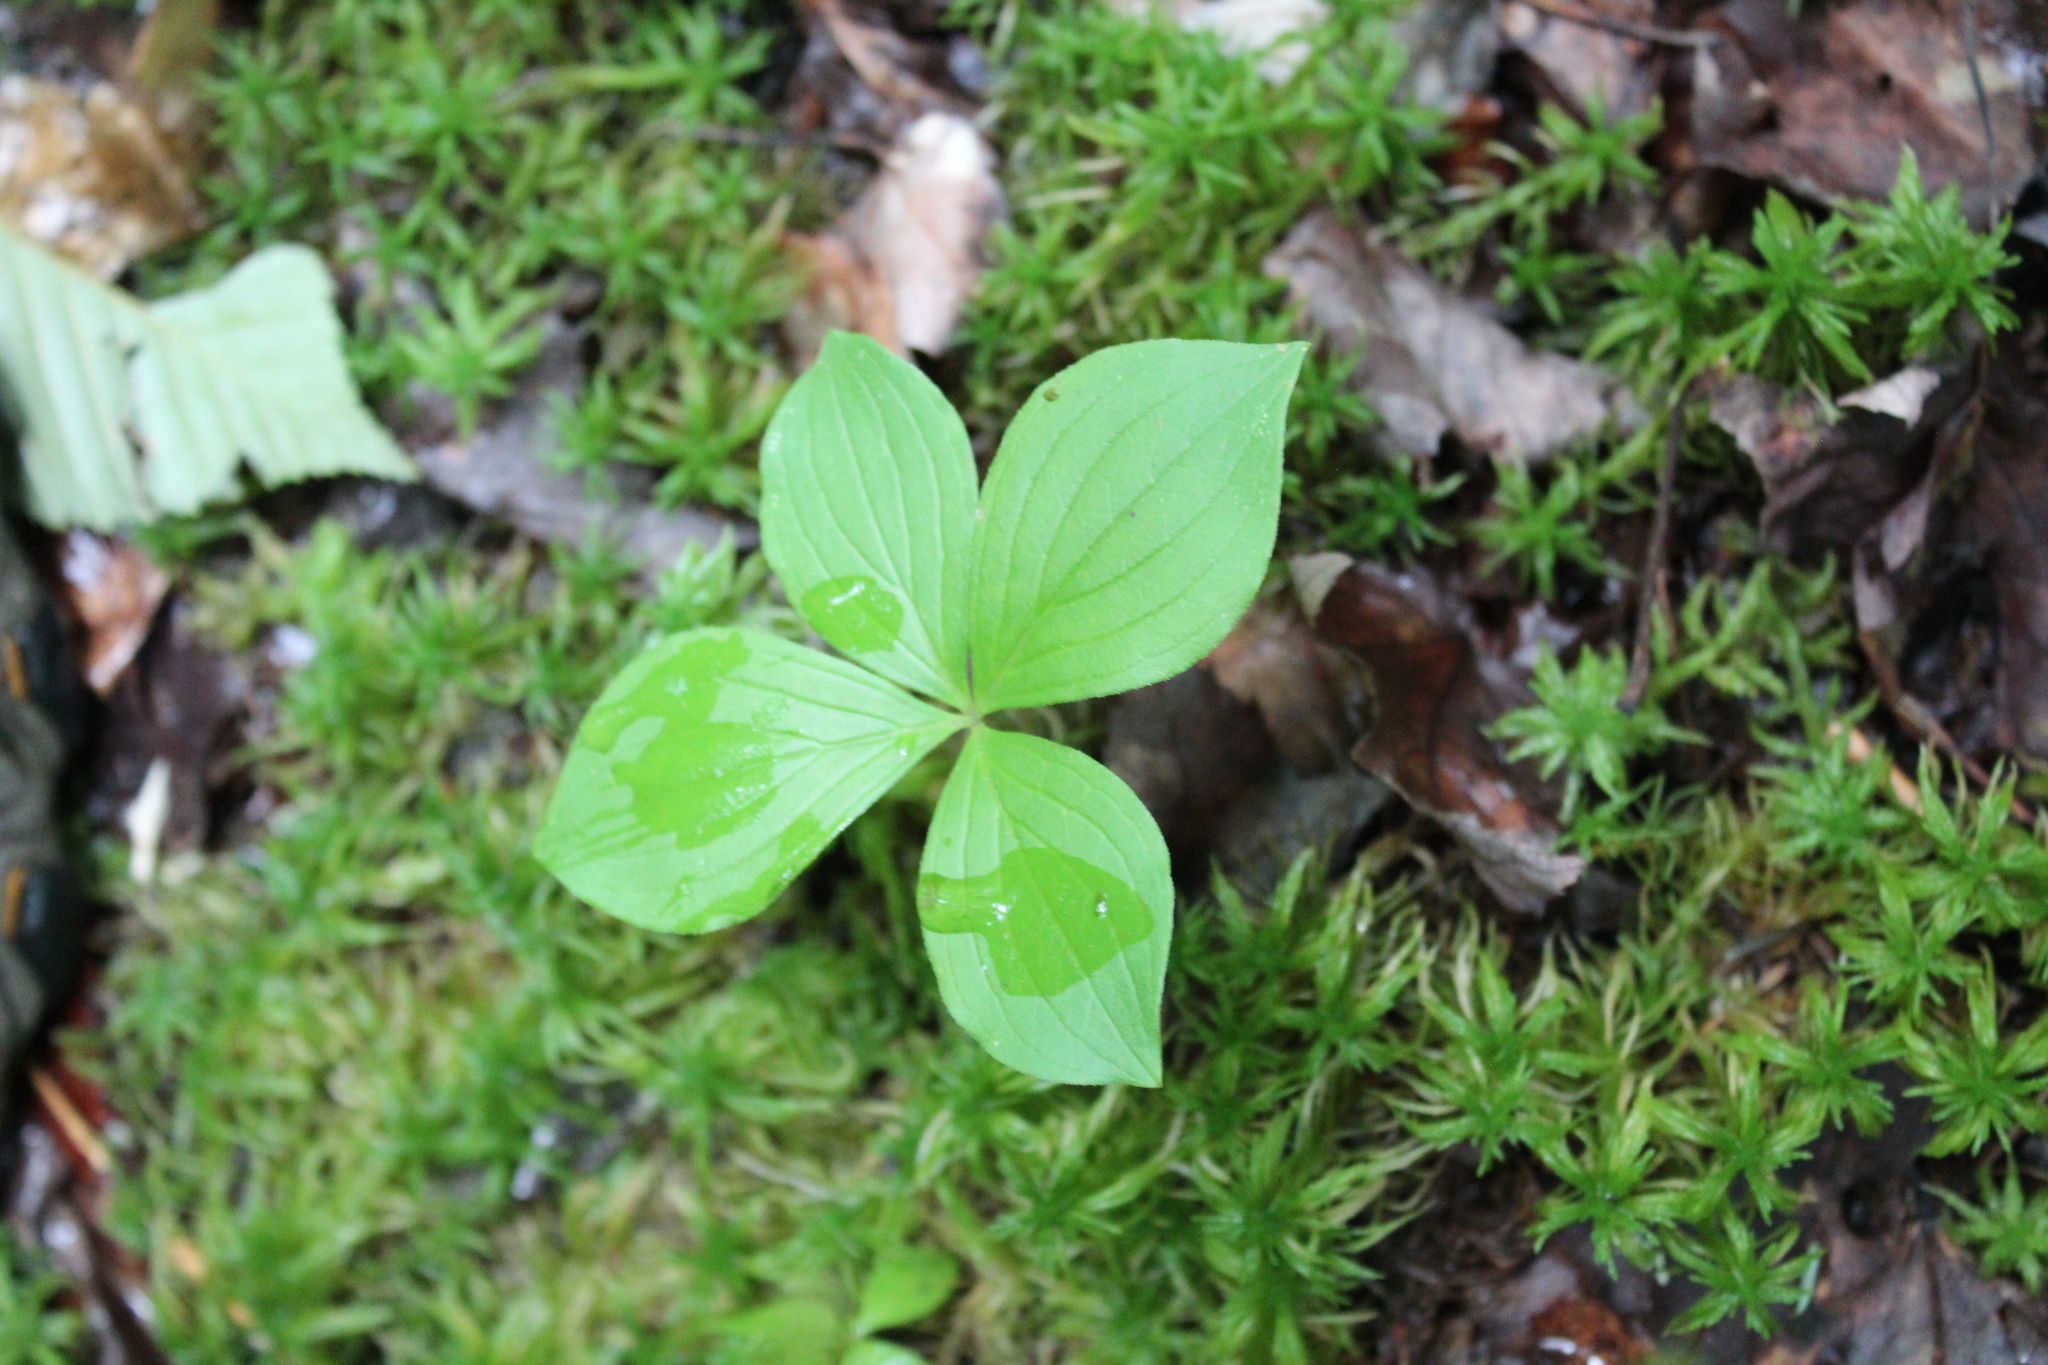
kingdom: Plantae
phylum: Tracheophyta
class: Magnoliopsida
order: Cornales
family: Cornaceae
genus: Cornus
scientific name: Cornus canadensis
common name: Creeping dogwood
